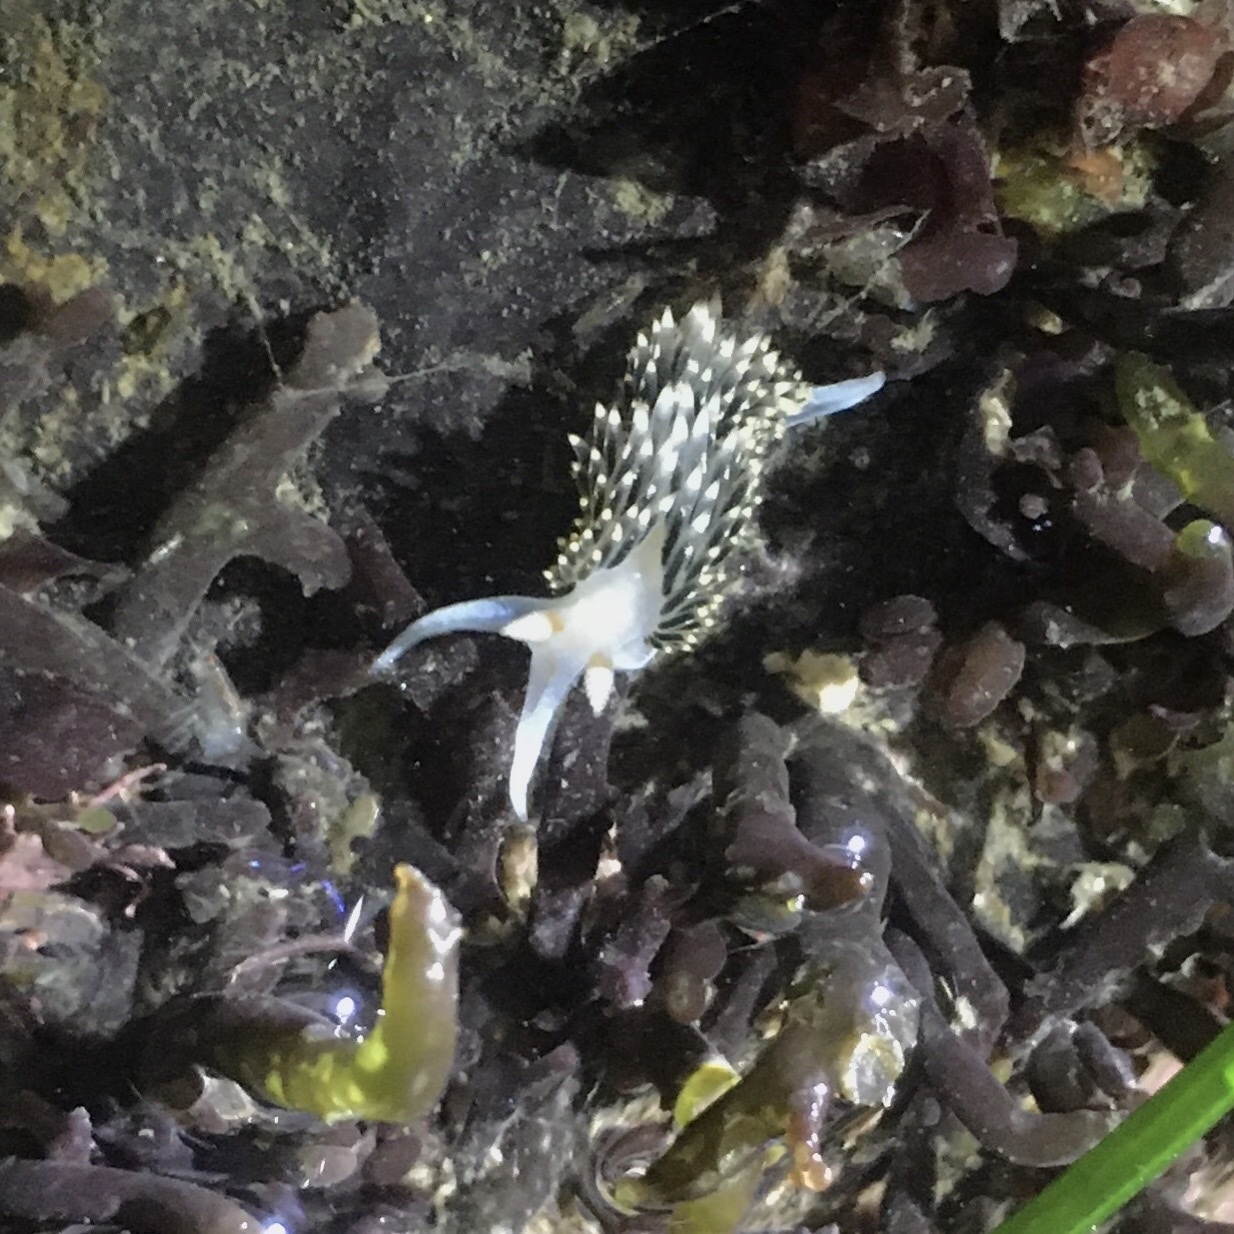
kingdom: Animalia
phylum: Mollusca
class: Gastropoda
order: Nudibranchia
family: Facelinidae
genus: Phidiana
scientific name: Phidiana hiltoni
